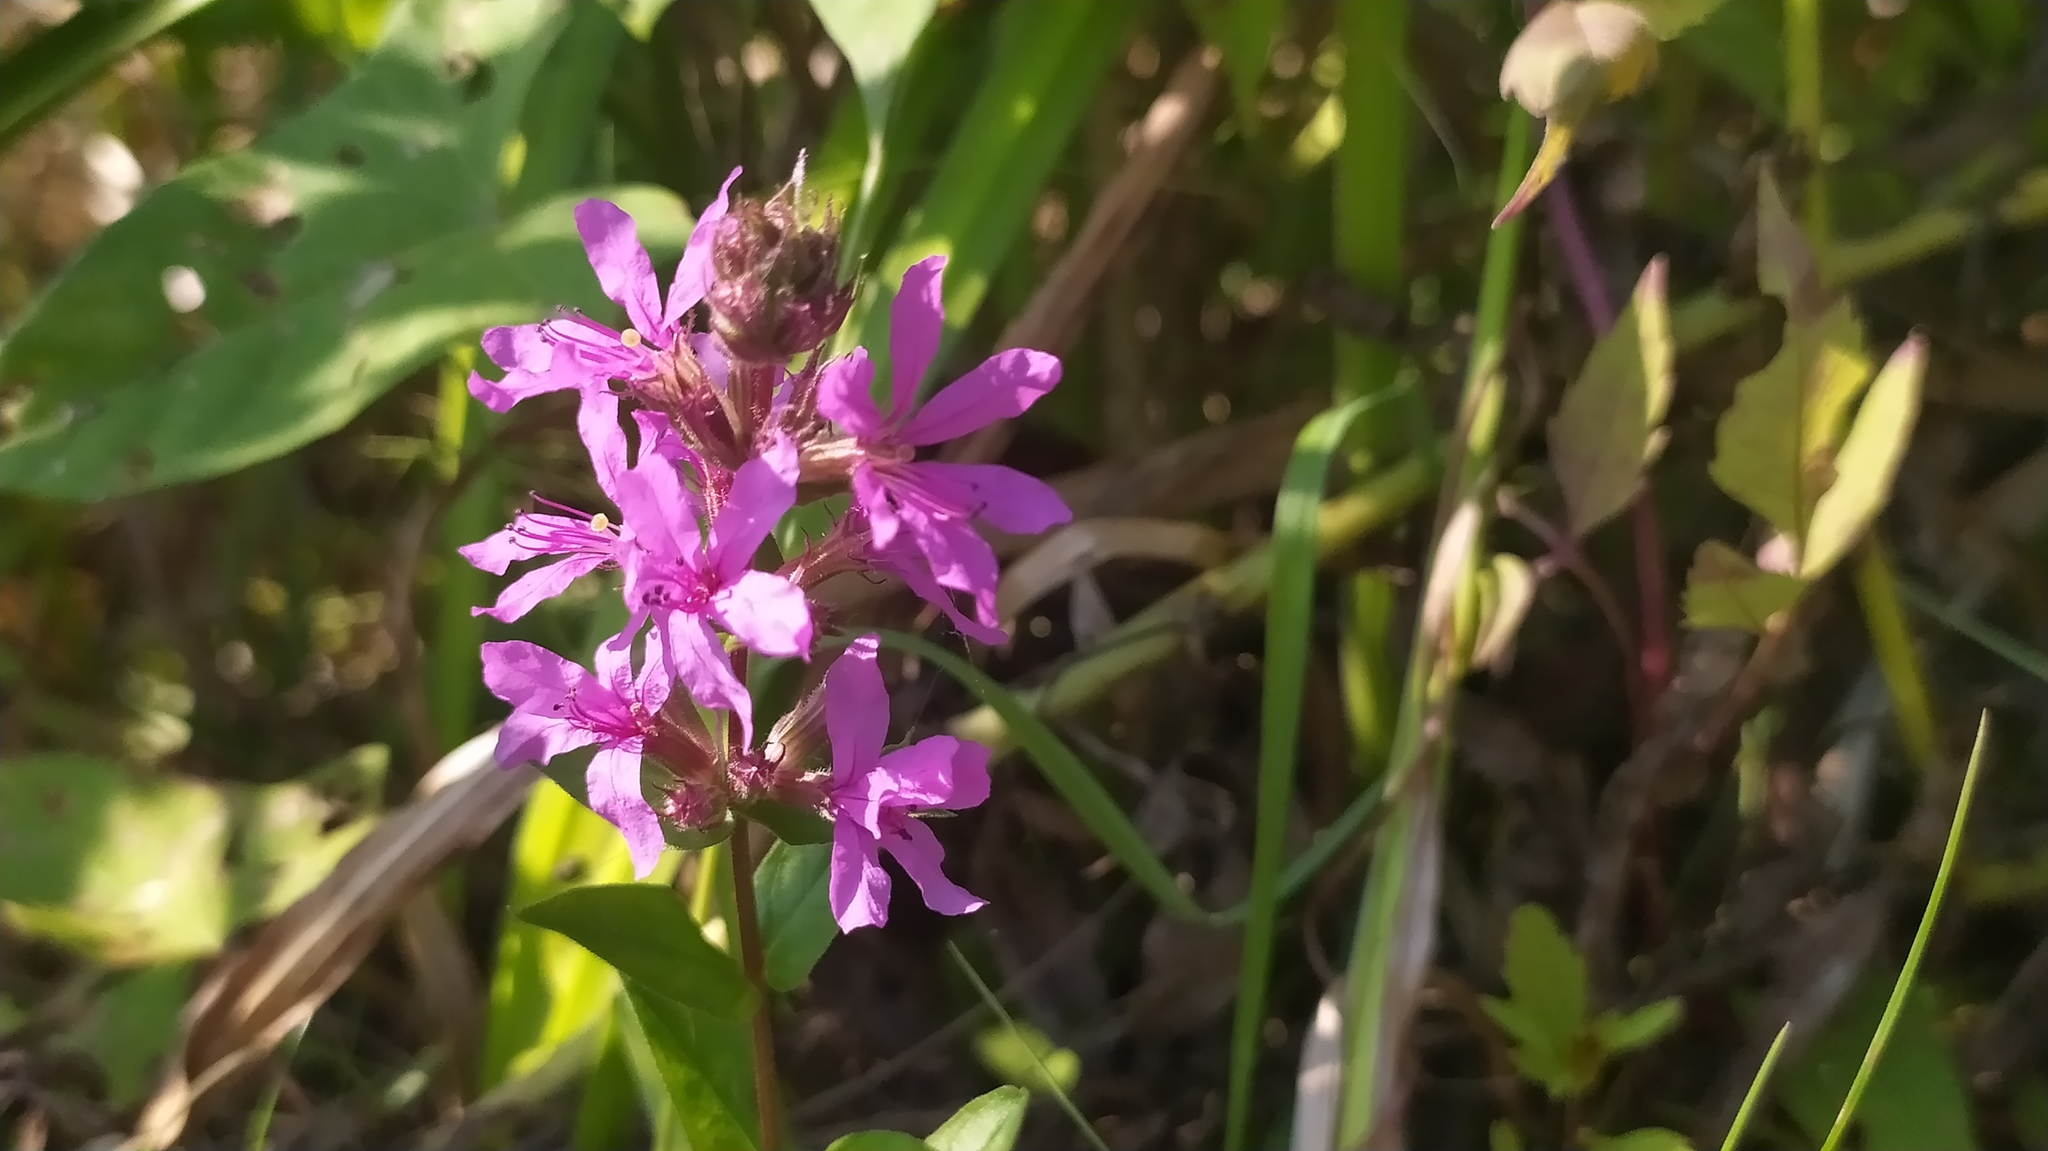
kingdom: Plantae
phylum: Tracheophyta
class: Magnoliopsida
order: Myrtales
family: Lythraceae
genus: Lythrum
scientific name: Lythrum salicaria
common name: Purple loosestrife
